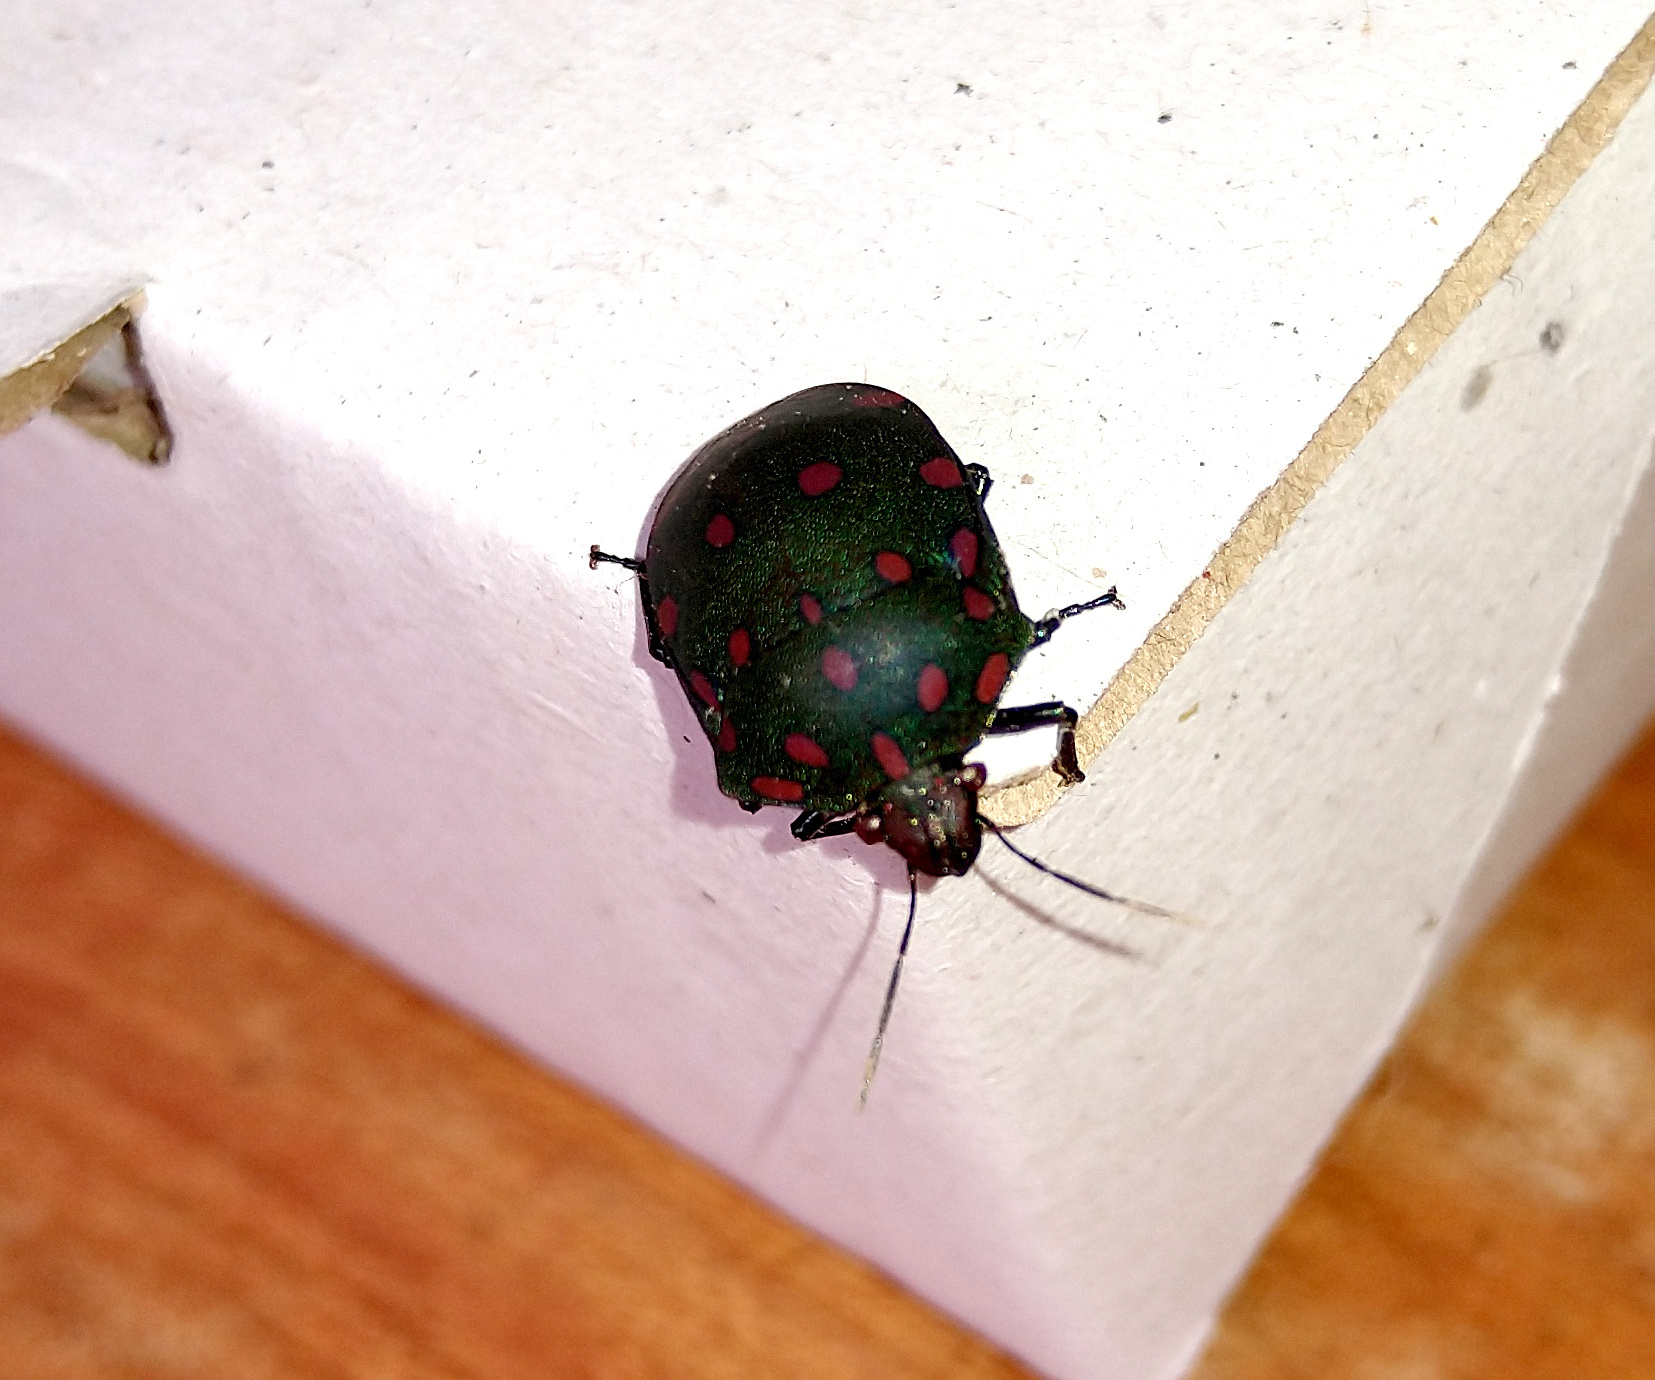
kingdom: Animalia
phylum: Arthropoda
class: Insecta
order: Hemiptera
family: Scutelleridae
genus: Pachycoris
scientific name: Pachycoris torridus
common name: Torrid jewel bug
